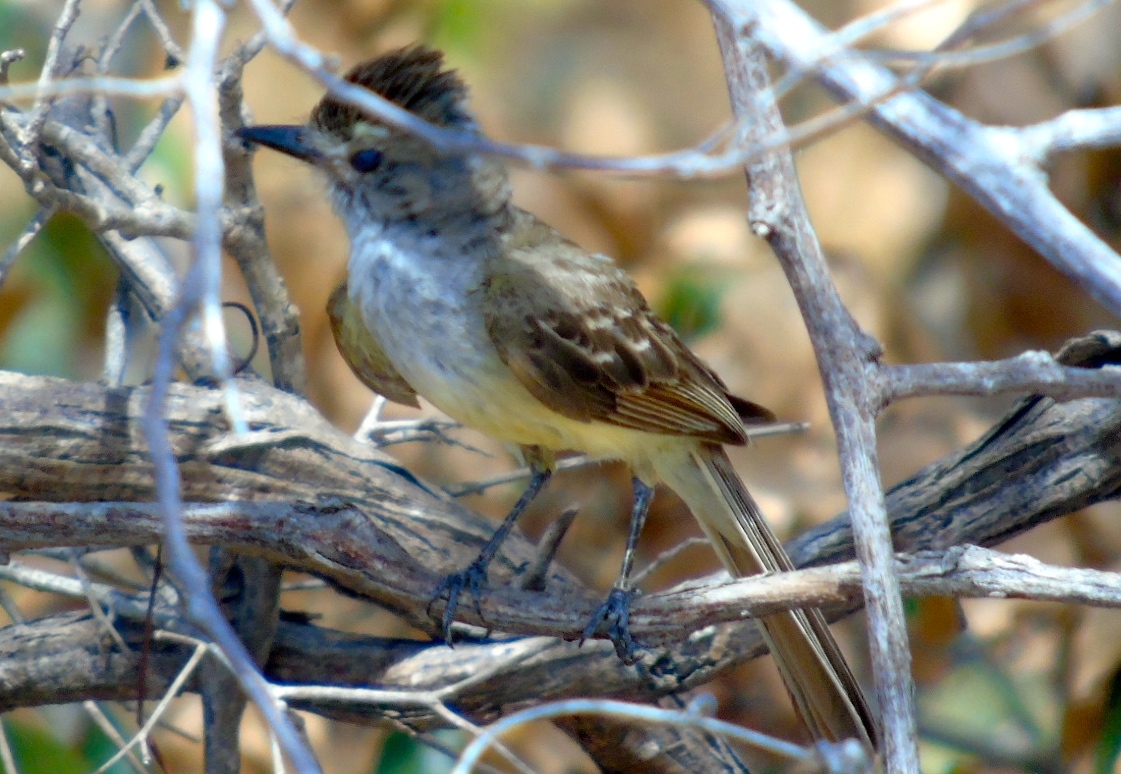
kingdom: Animalia
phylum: Chordata
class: Aves
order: Passeriformes
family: Tyrannidae
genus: Myiarchus
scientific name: Myiarchus tyrannulus
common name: Brown-crested flycatcher
